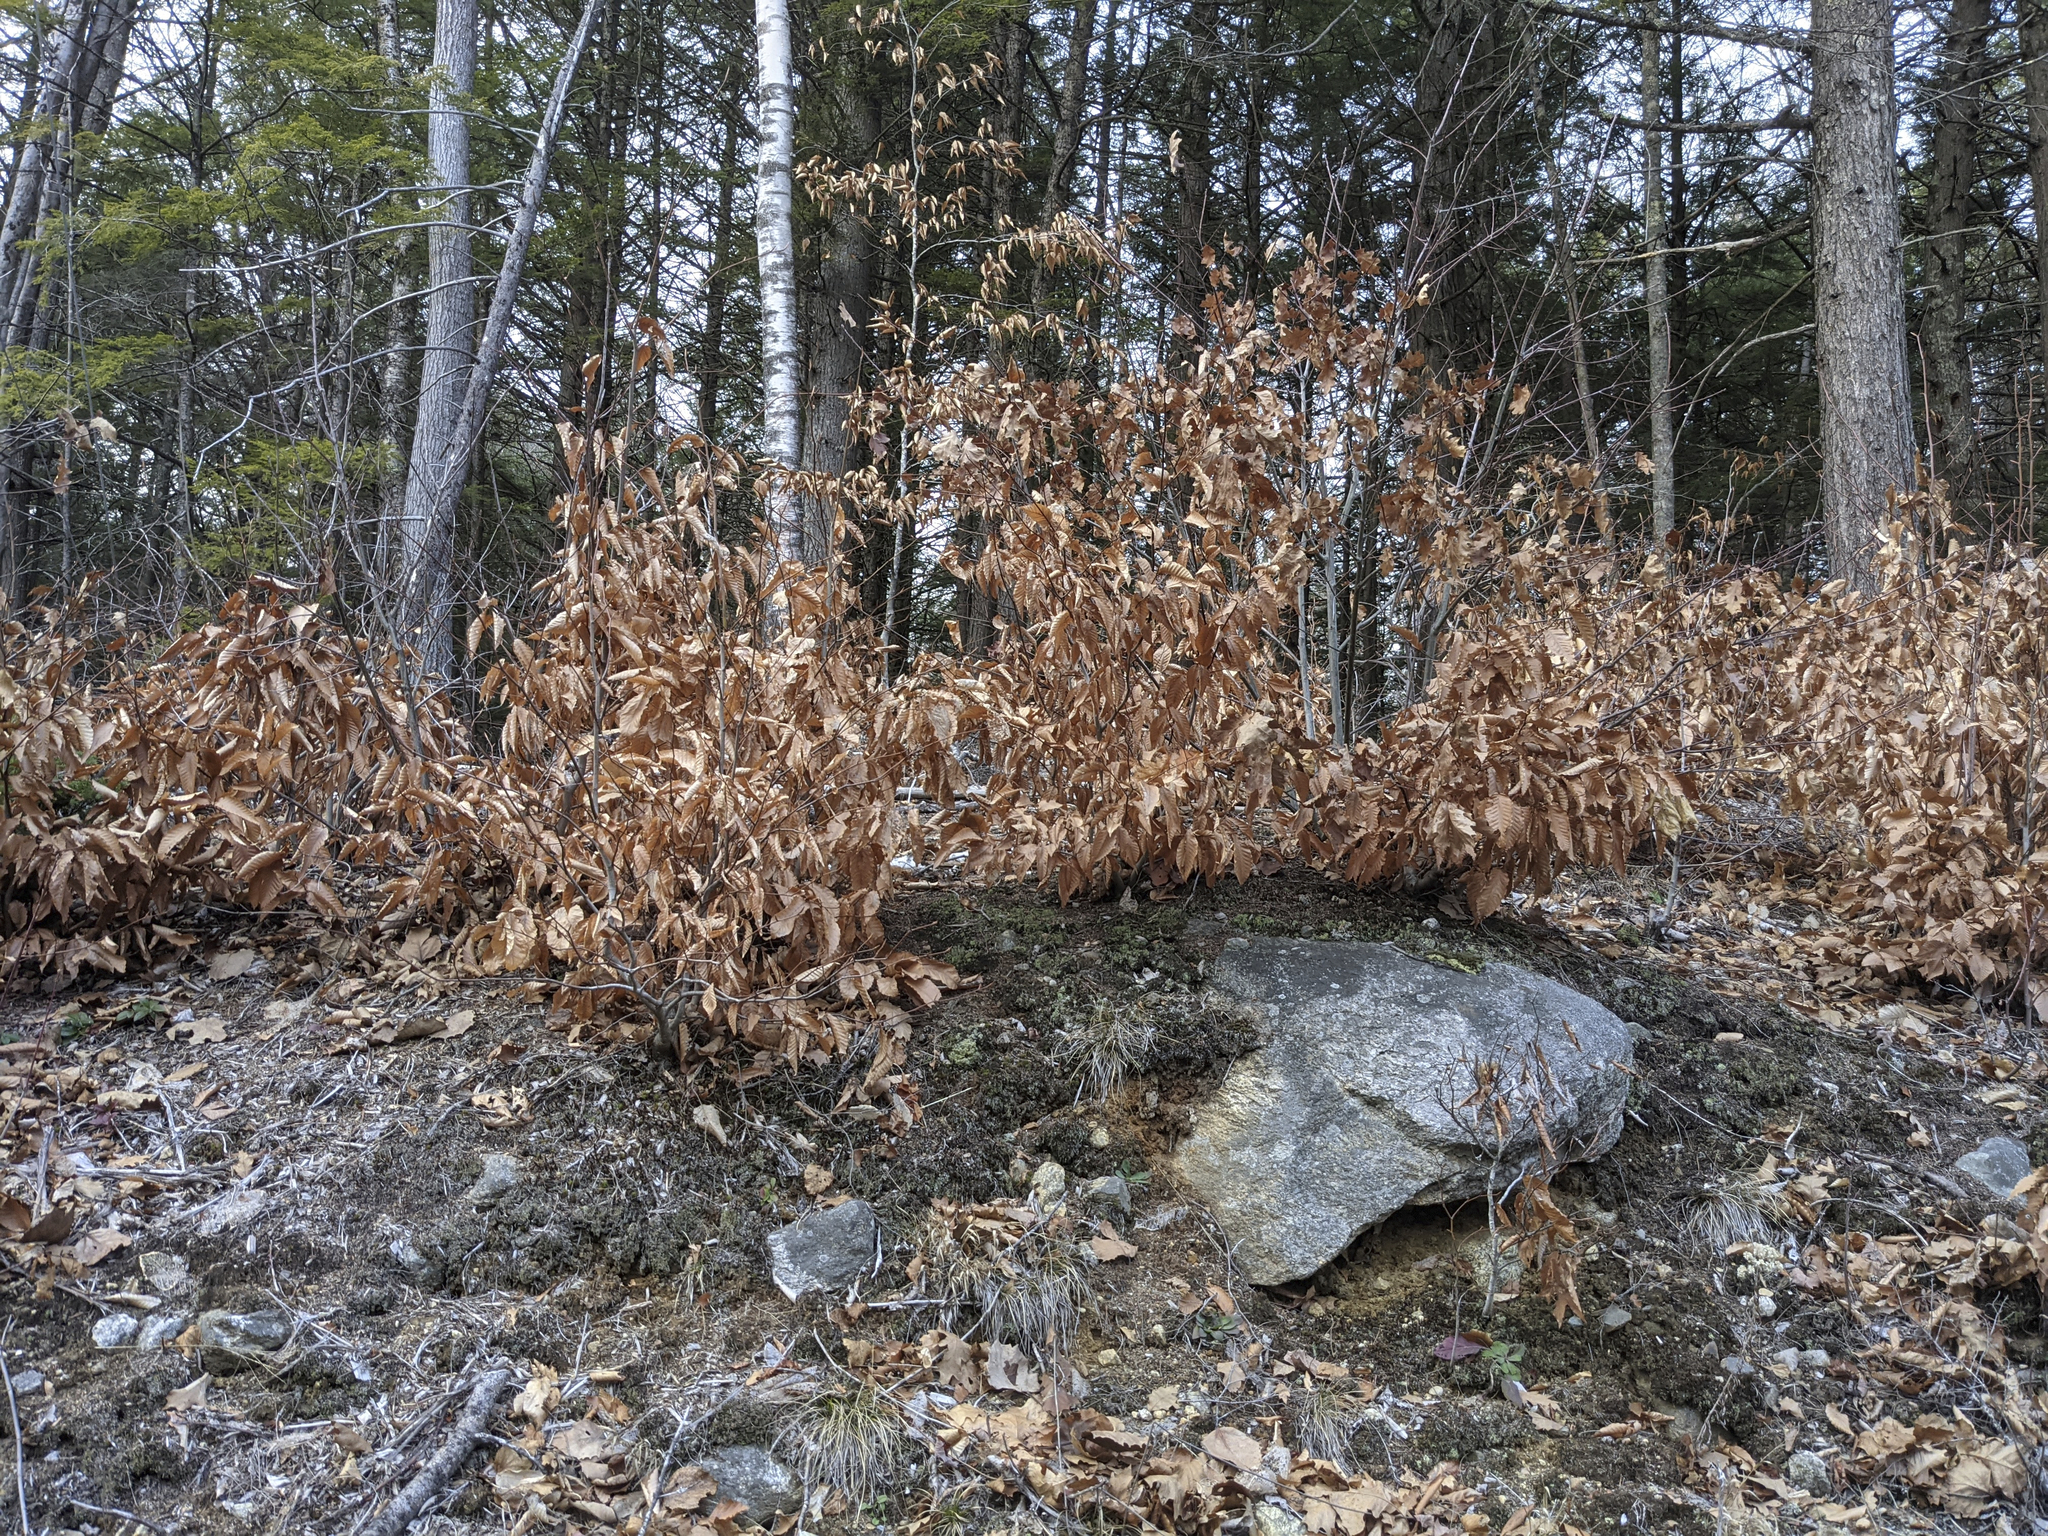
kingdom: Plantae
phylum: Tracheophyta
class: Magnoliopsida
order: Fagales
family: Fagaceae
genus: Fagus
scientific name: Fagus grandifolia
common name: American beech
